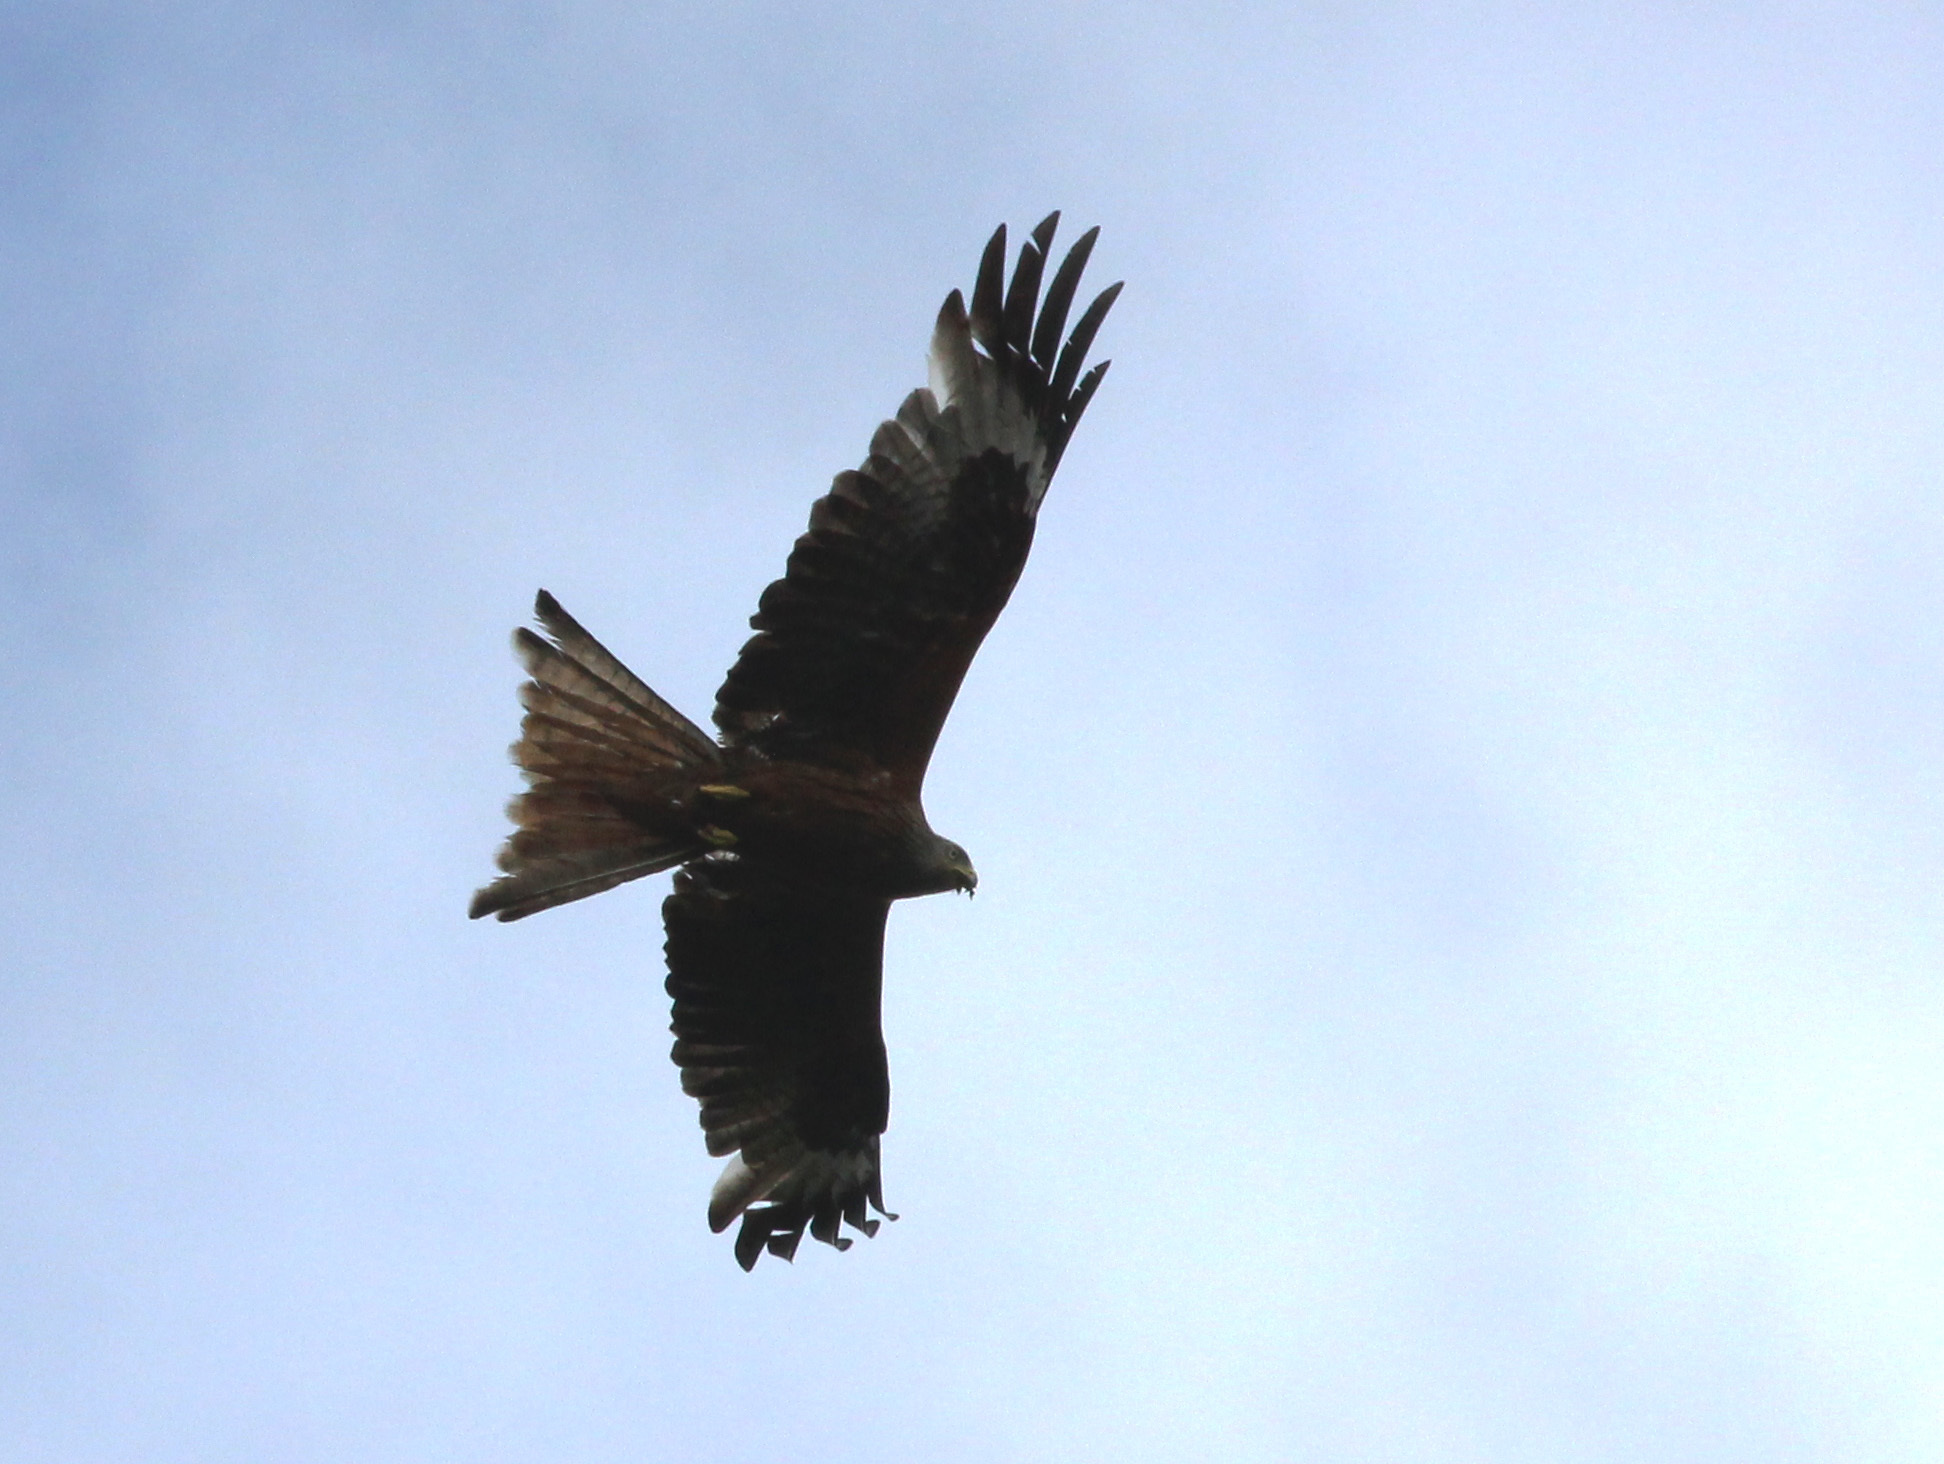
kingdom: Animalia
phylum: Chordata
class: Aves
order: Accipitriformes
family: Accipitridae
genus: Milvus
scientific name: Milvus milvus
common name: Red kite
